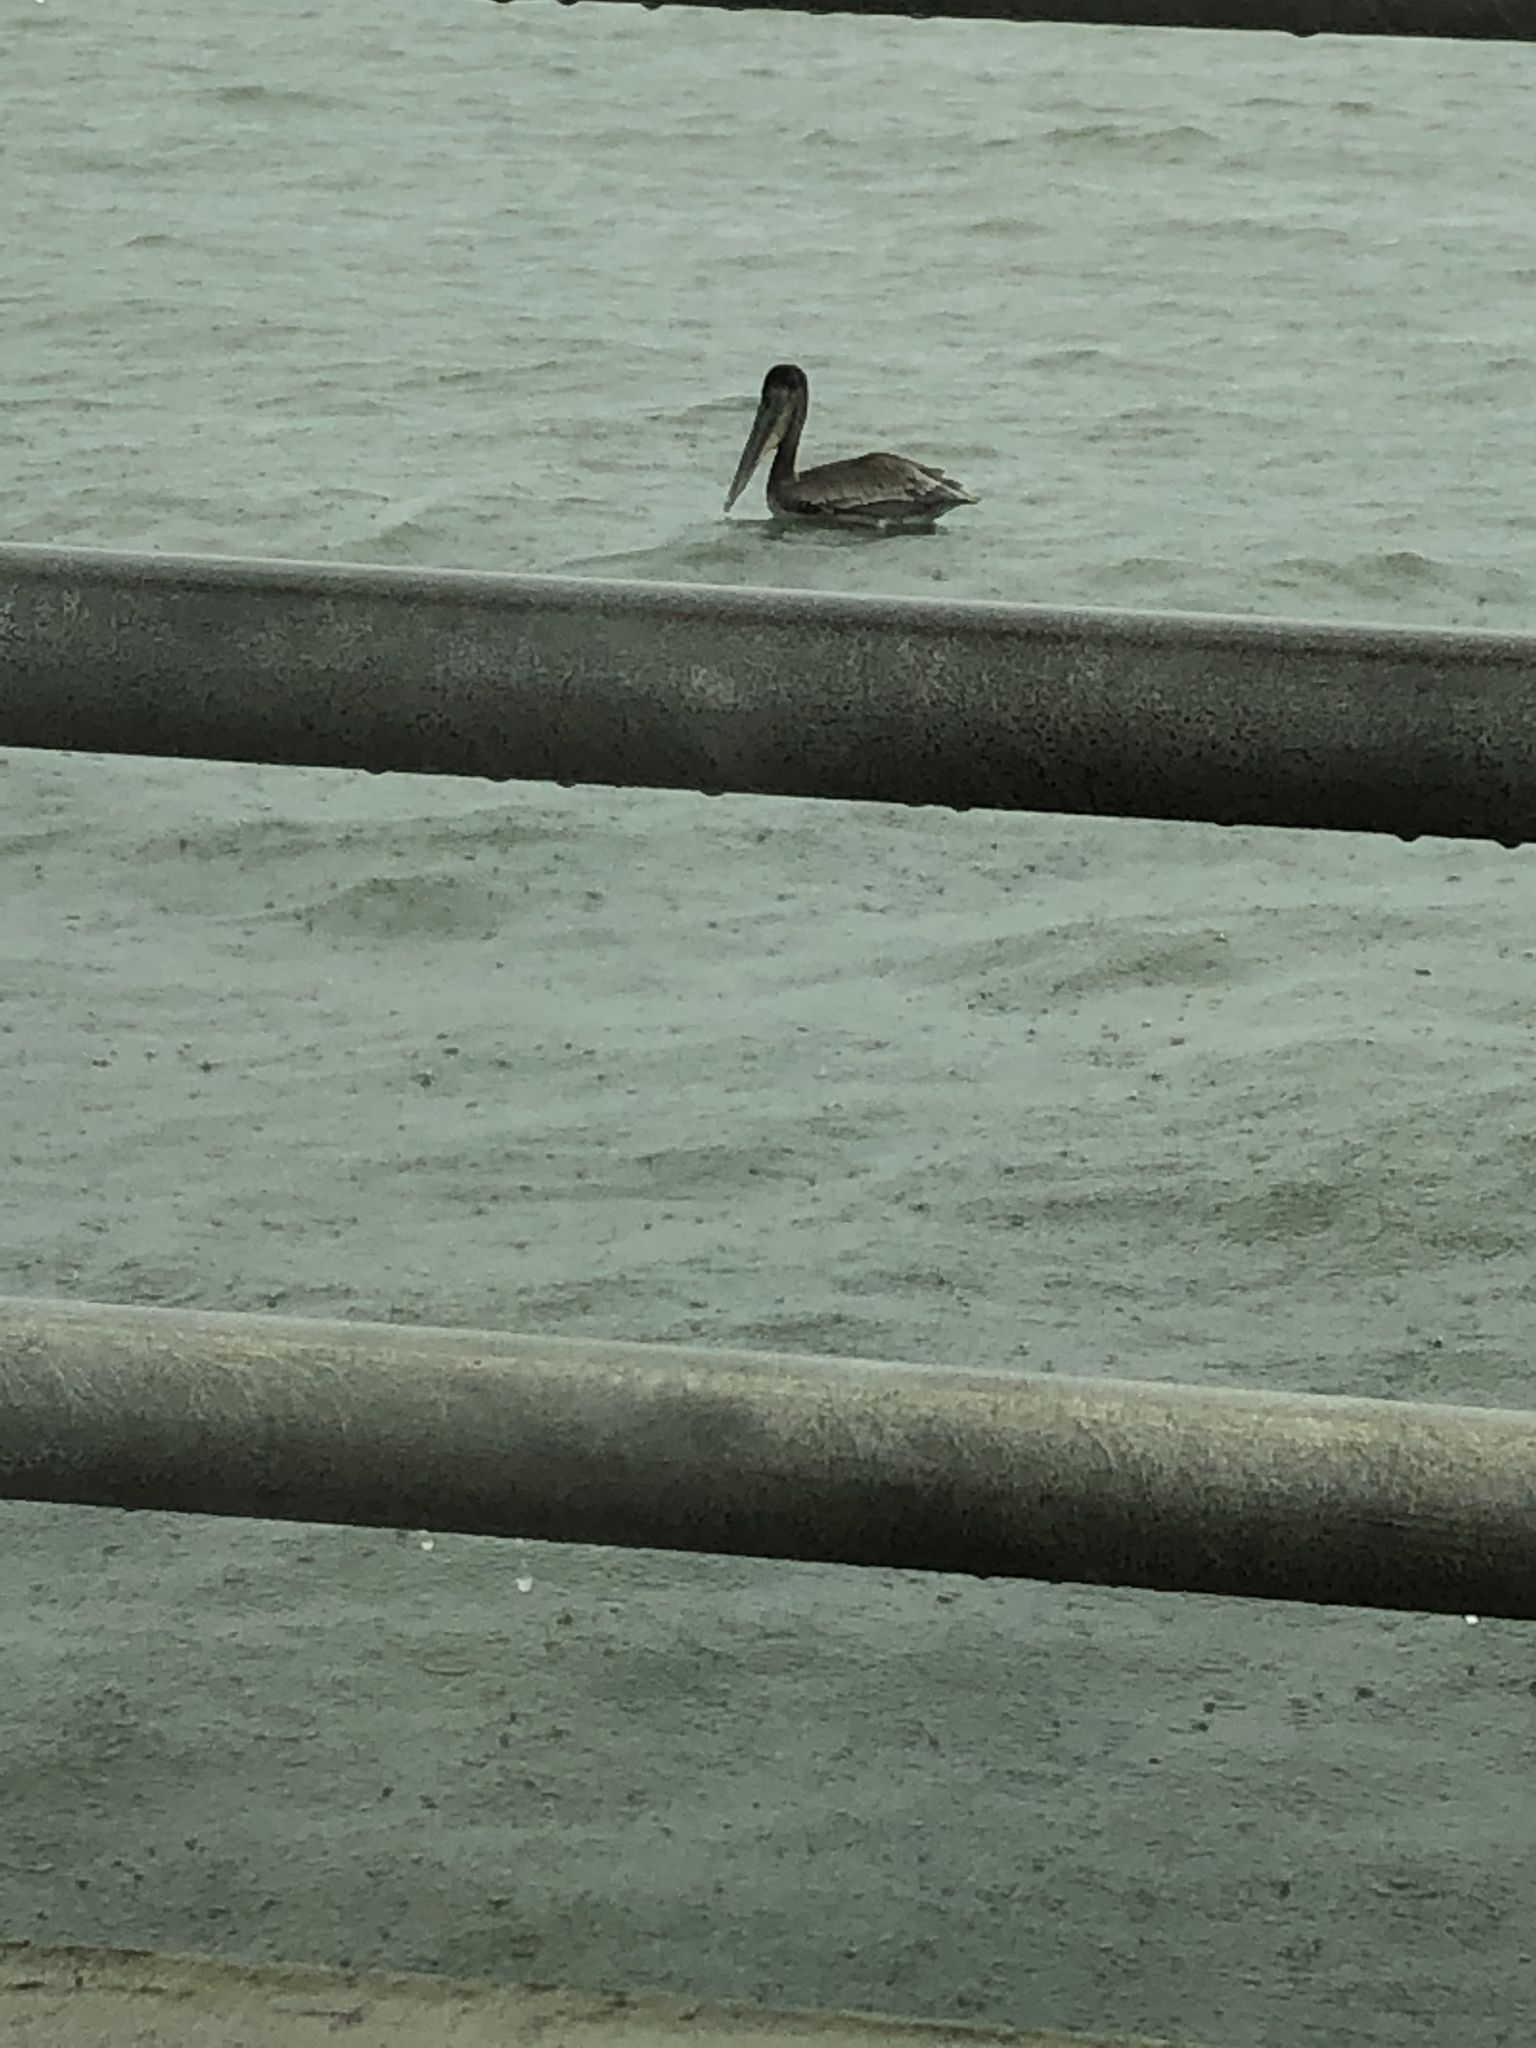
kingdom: Animalia
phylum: Chordata
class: Aves
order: Pelecaniformes
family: Pelecanidae
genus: Pelecanus
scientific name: Pelecanus occidentalis
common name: Brown pelican
